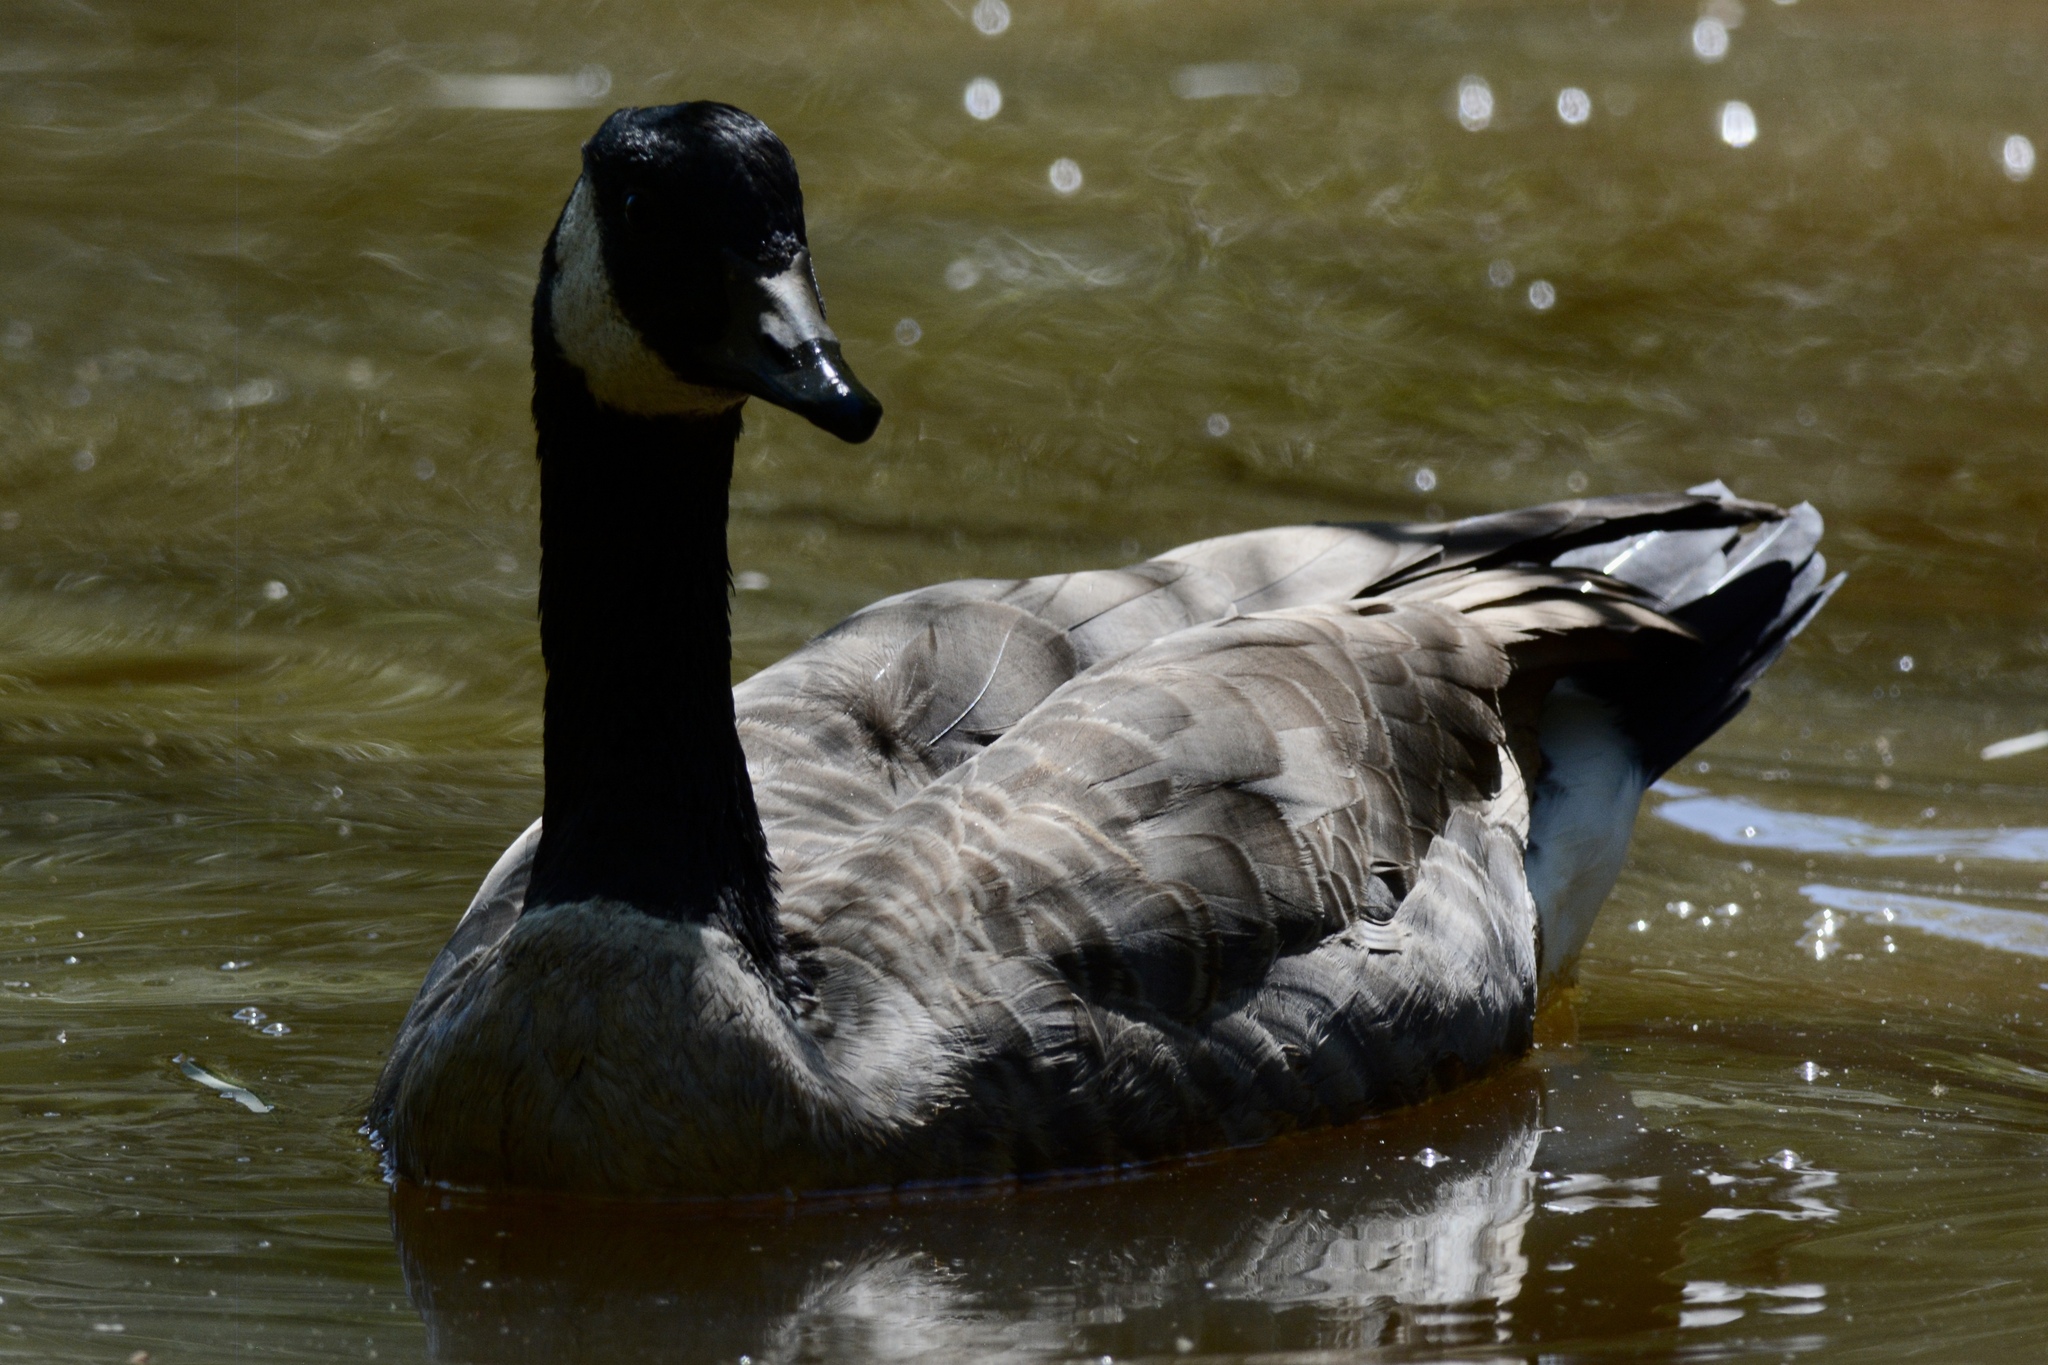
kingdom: Animalia
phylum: Chordata
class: Aves
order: Anseriformes
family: Anatidae
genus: Branta
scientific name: Branta canadensis
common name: Canada goose
